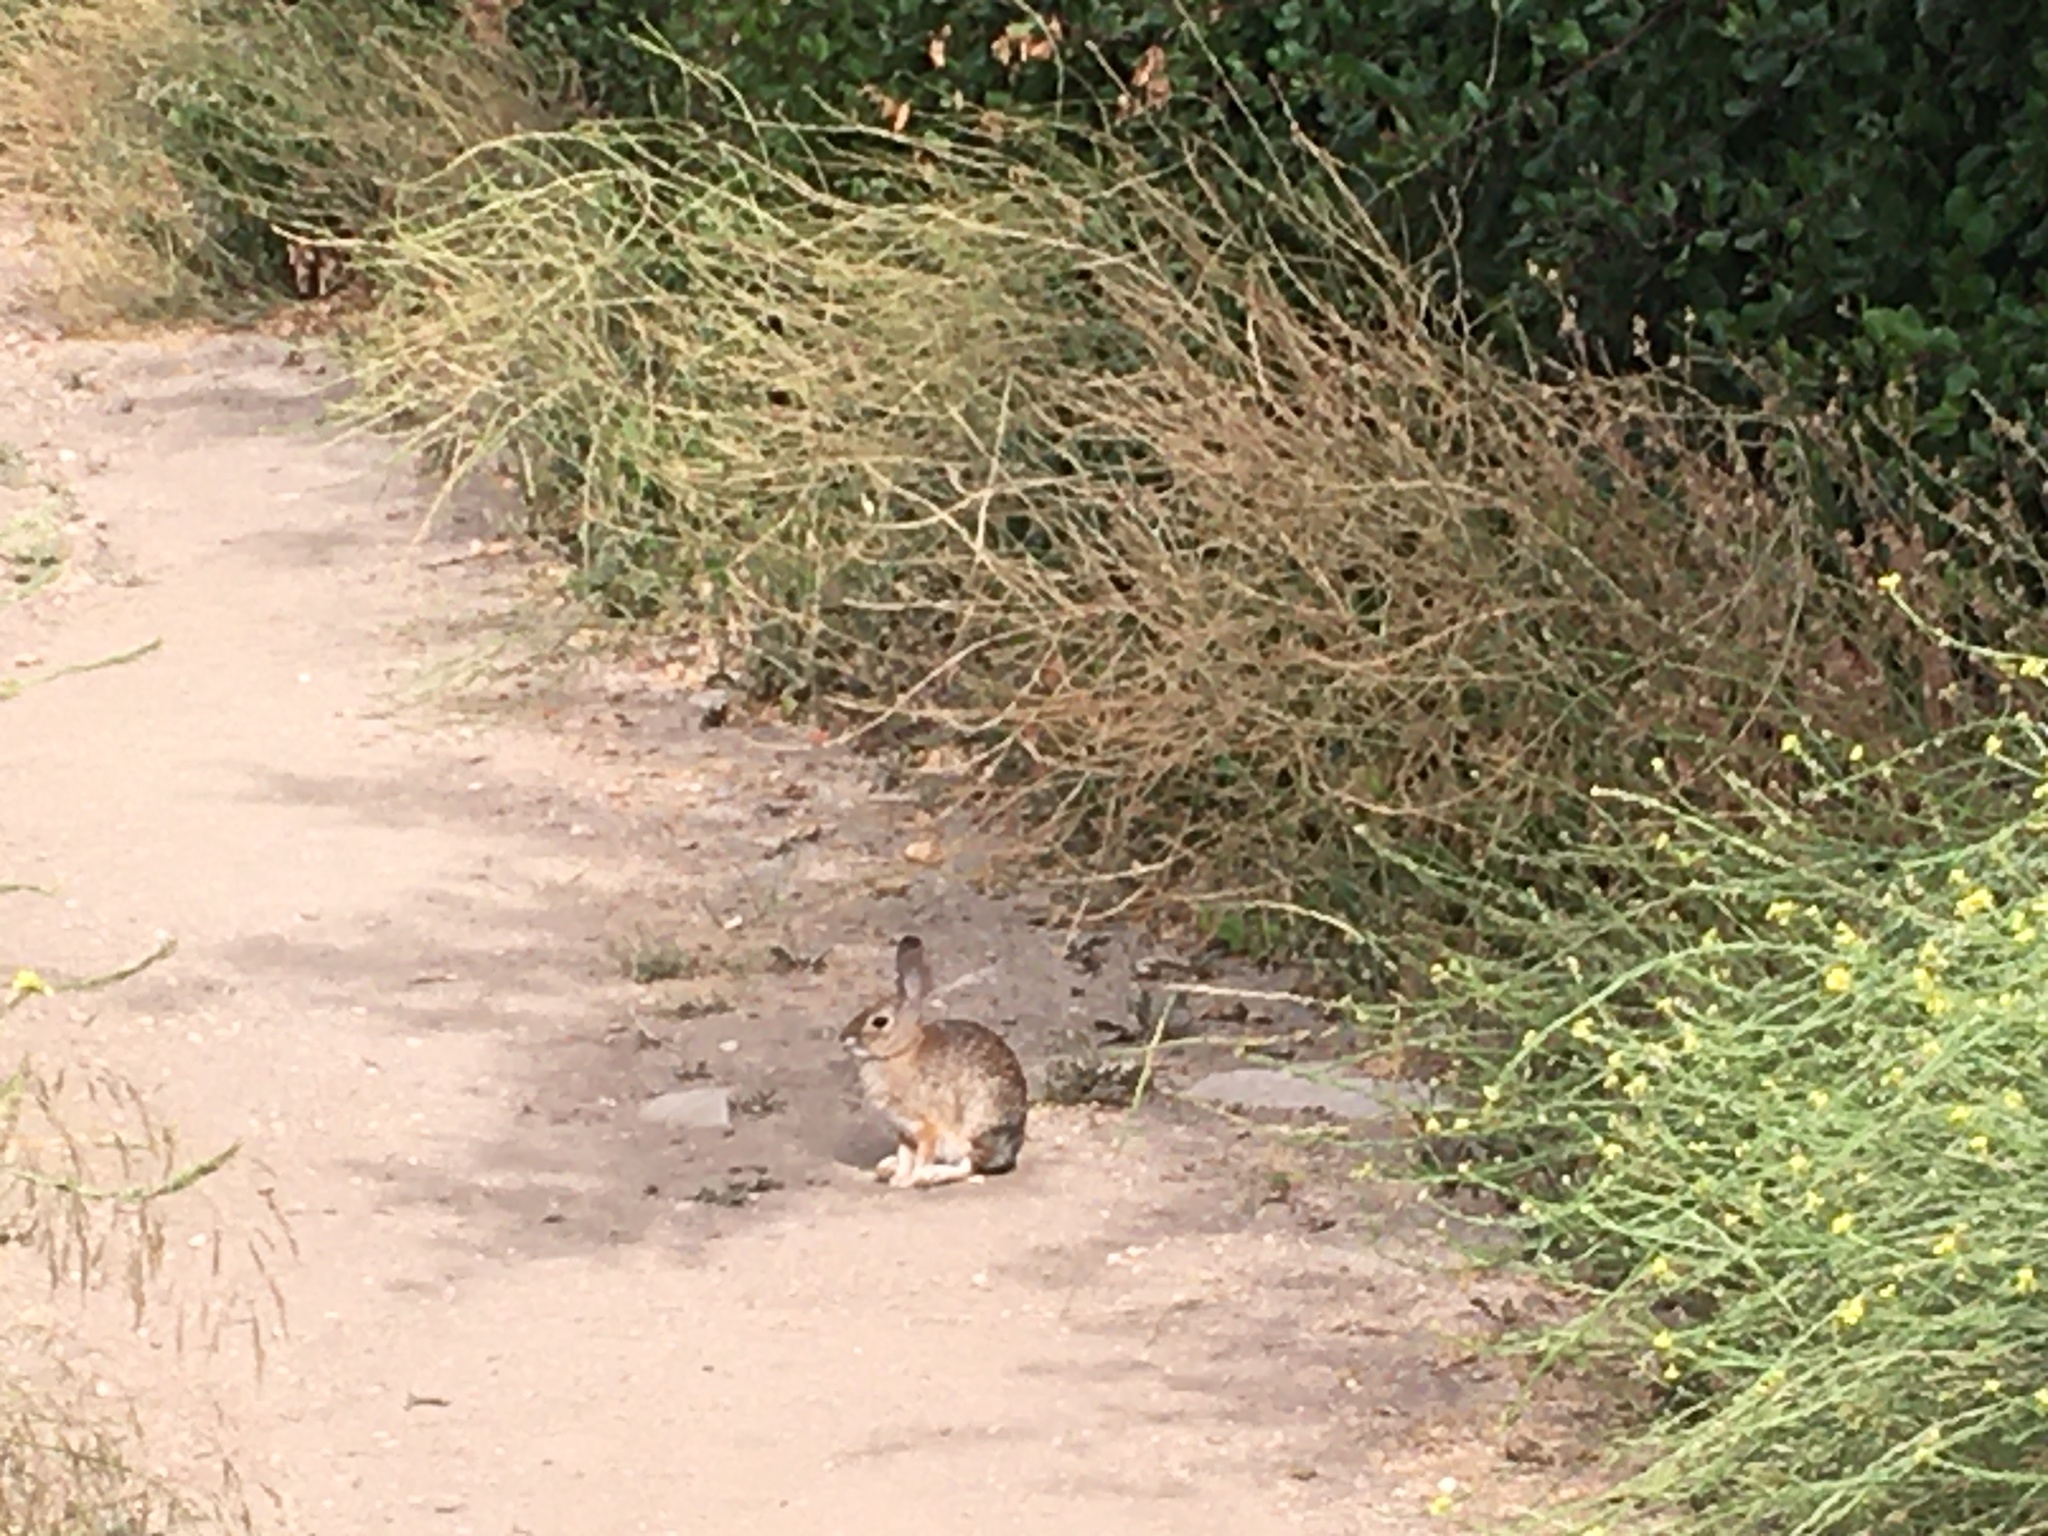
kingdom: Animalia
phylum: Chordata
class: Mammalia
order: Lagomorpha
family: Leporidae
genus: Sylvilagus
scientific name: Sylvilagus audubonii
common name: Desert cottontail
